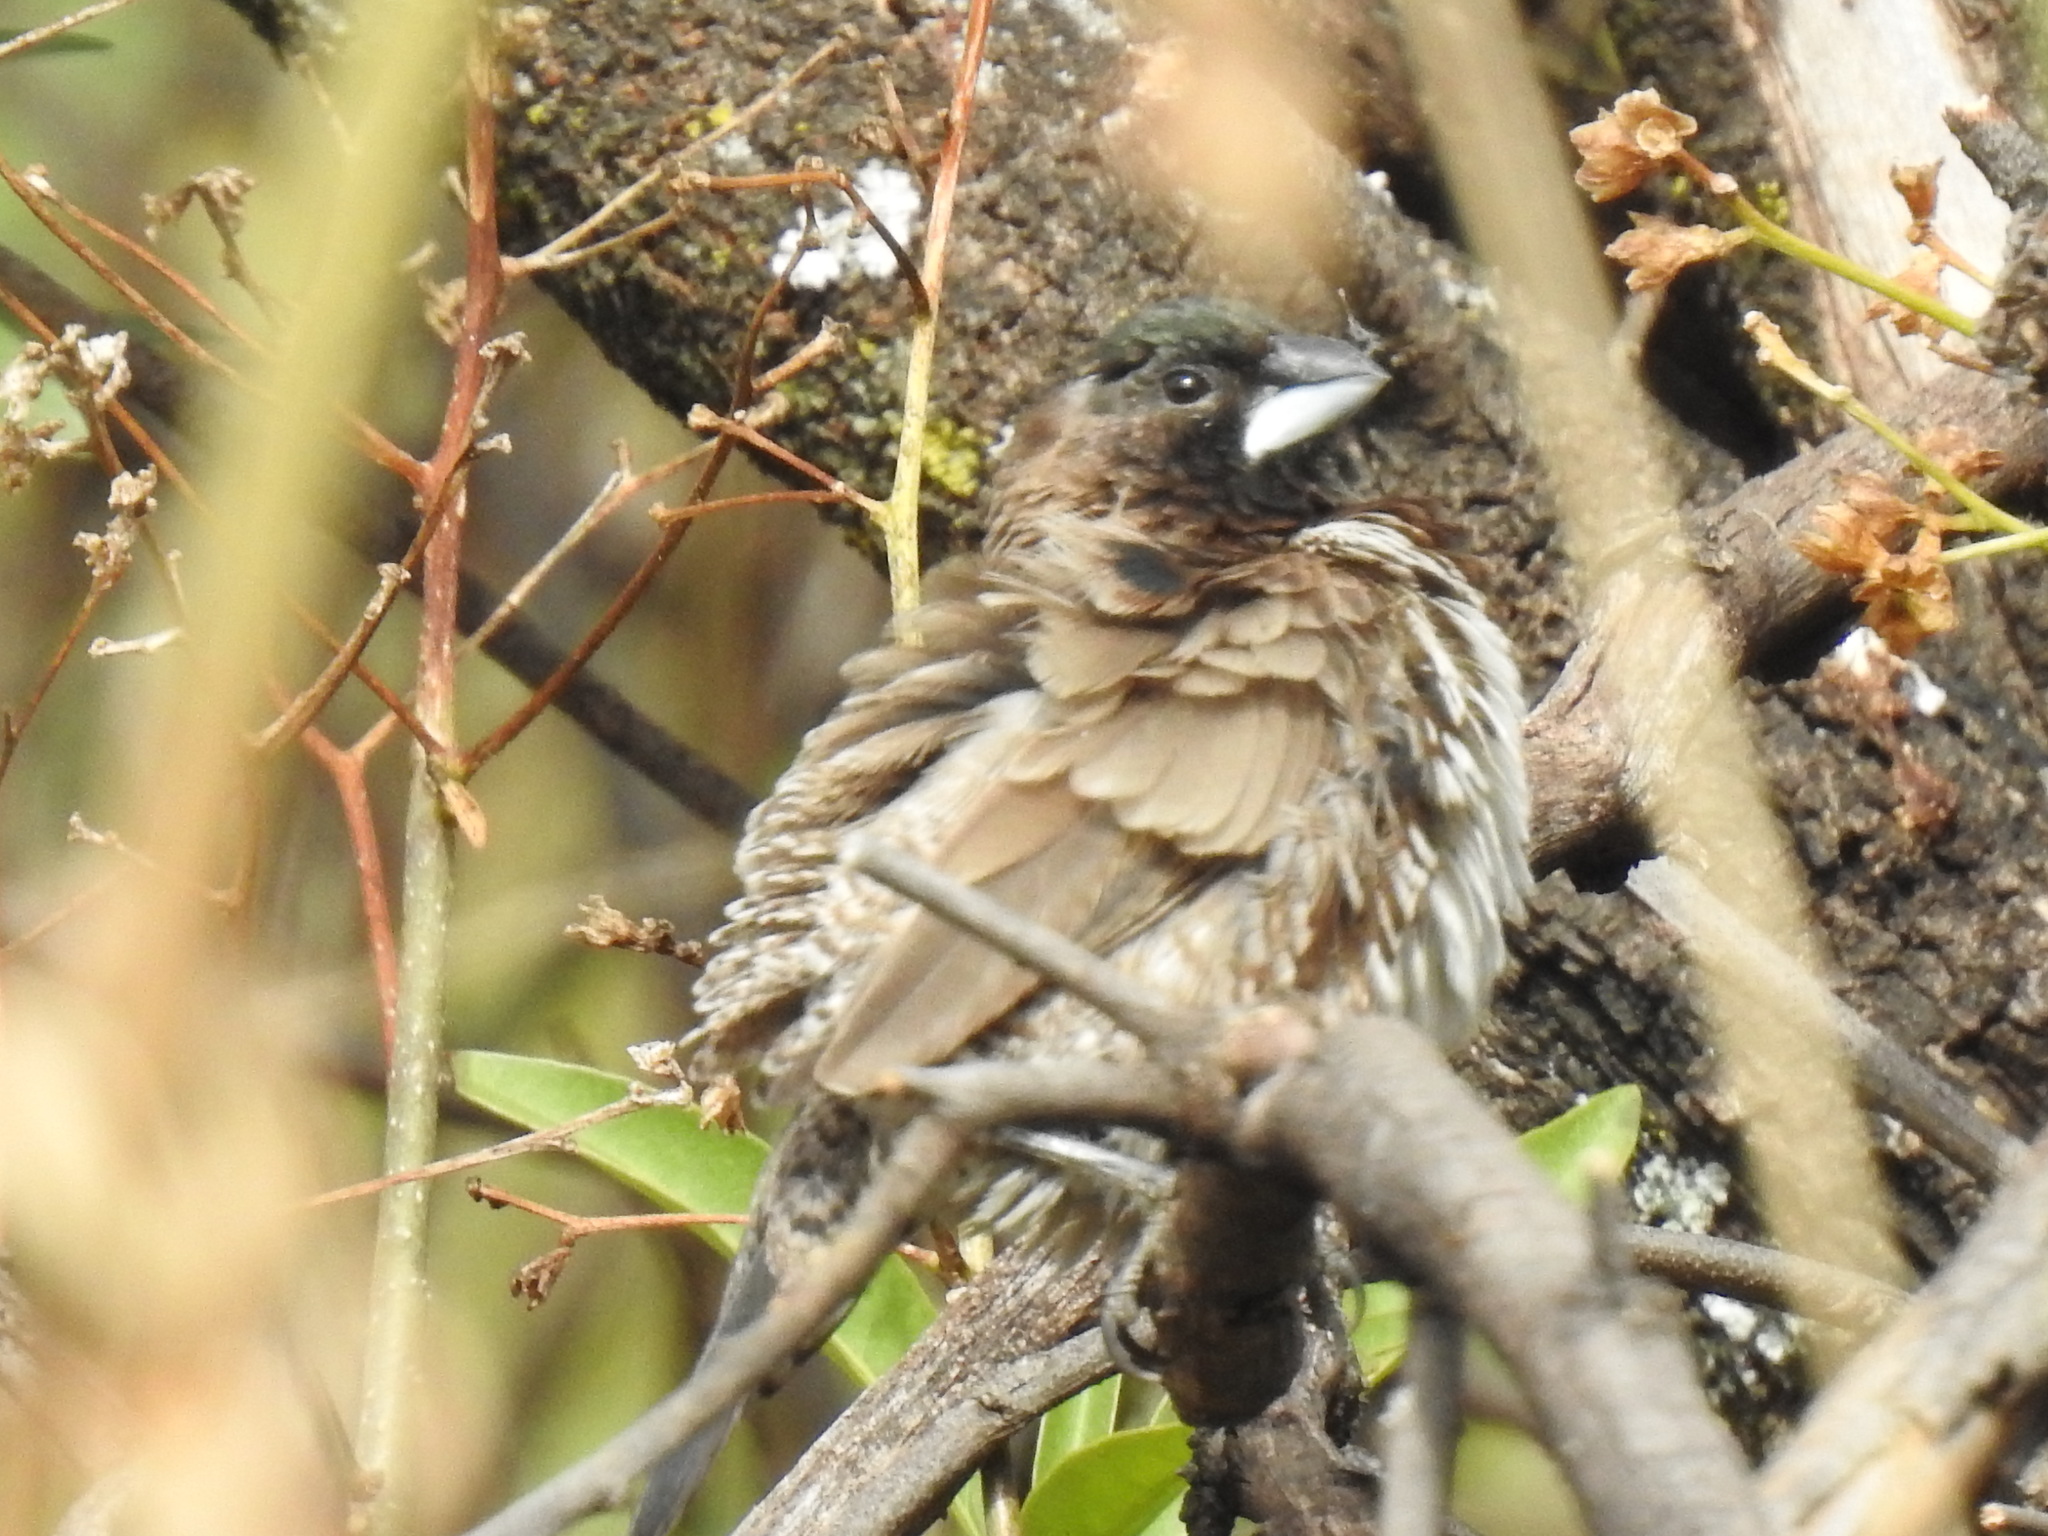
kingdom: Animalia
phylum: Chordata
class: Aves
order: Passeriformes
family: Estrildidae
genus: Lonchura
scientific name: Lonchura cucullata
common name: Bronze mannikin
